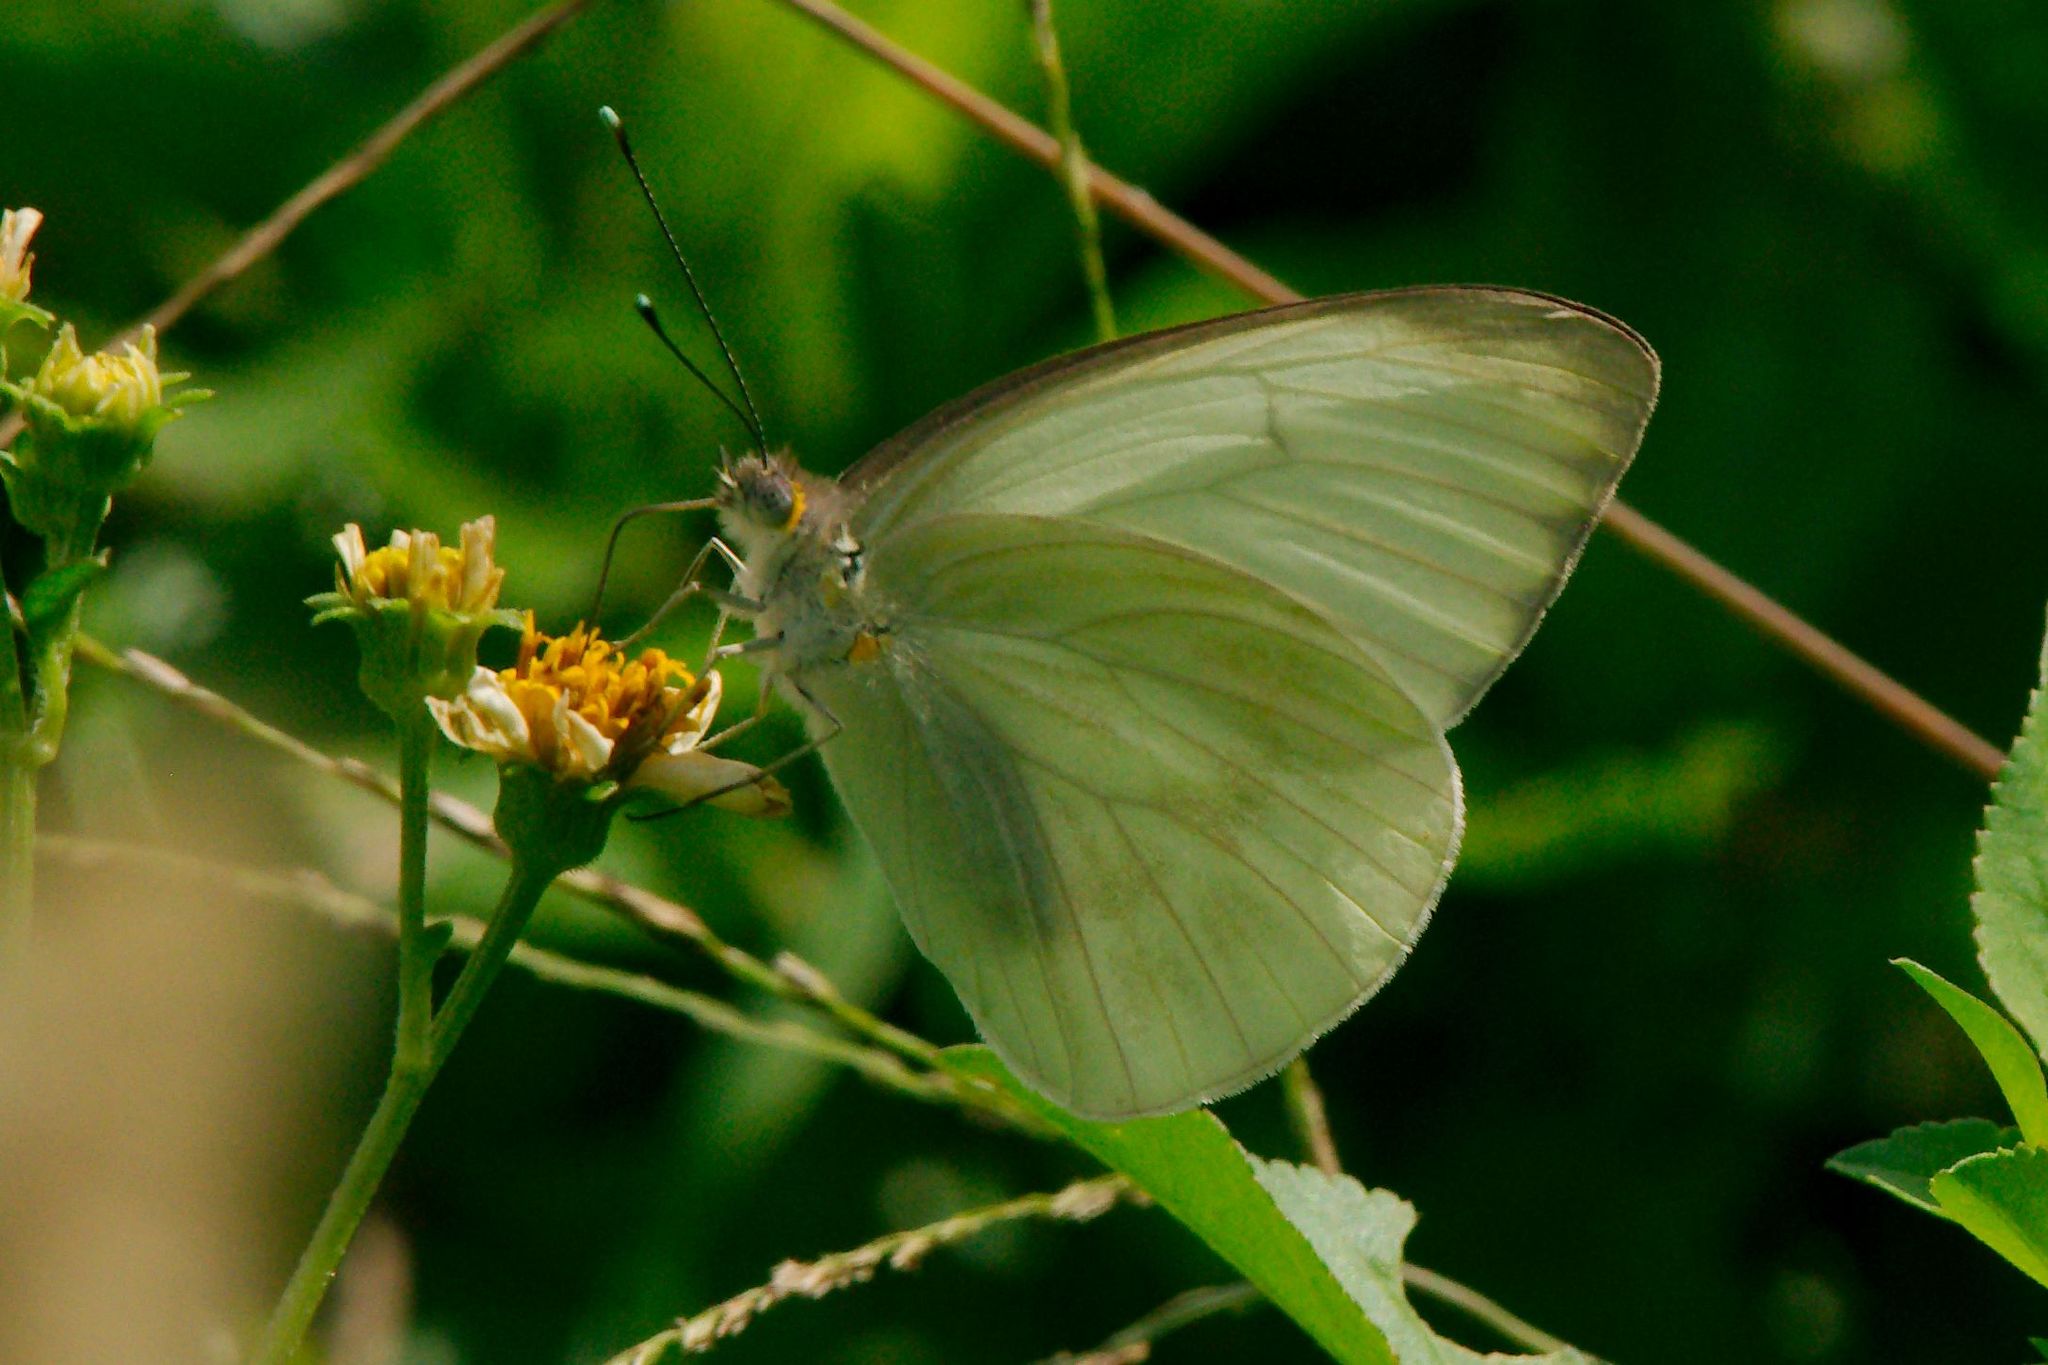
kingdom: Animalia
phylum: Arthropoda
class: Insecta
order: Lepidoptera
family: Pieridae
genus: Ascia
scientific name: Ascia monuste
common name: Great southern white
